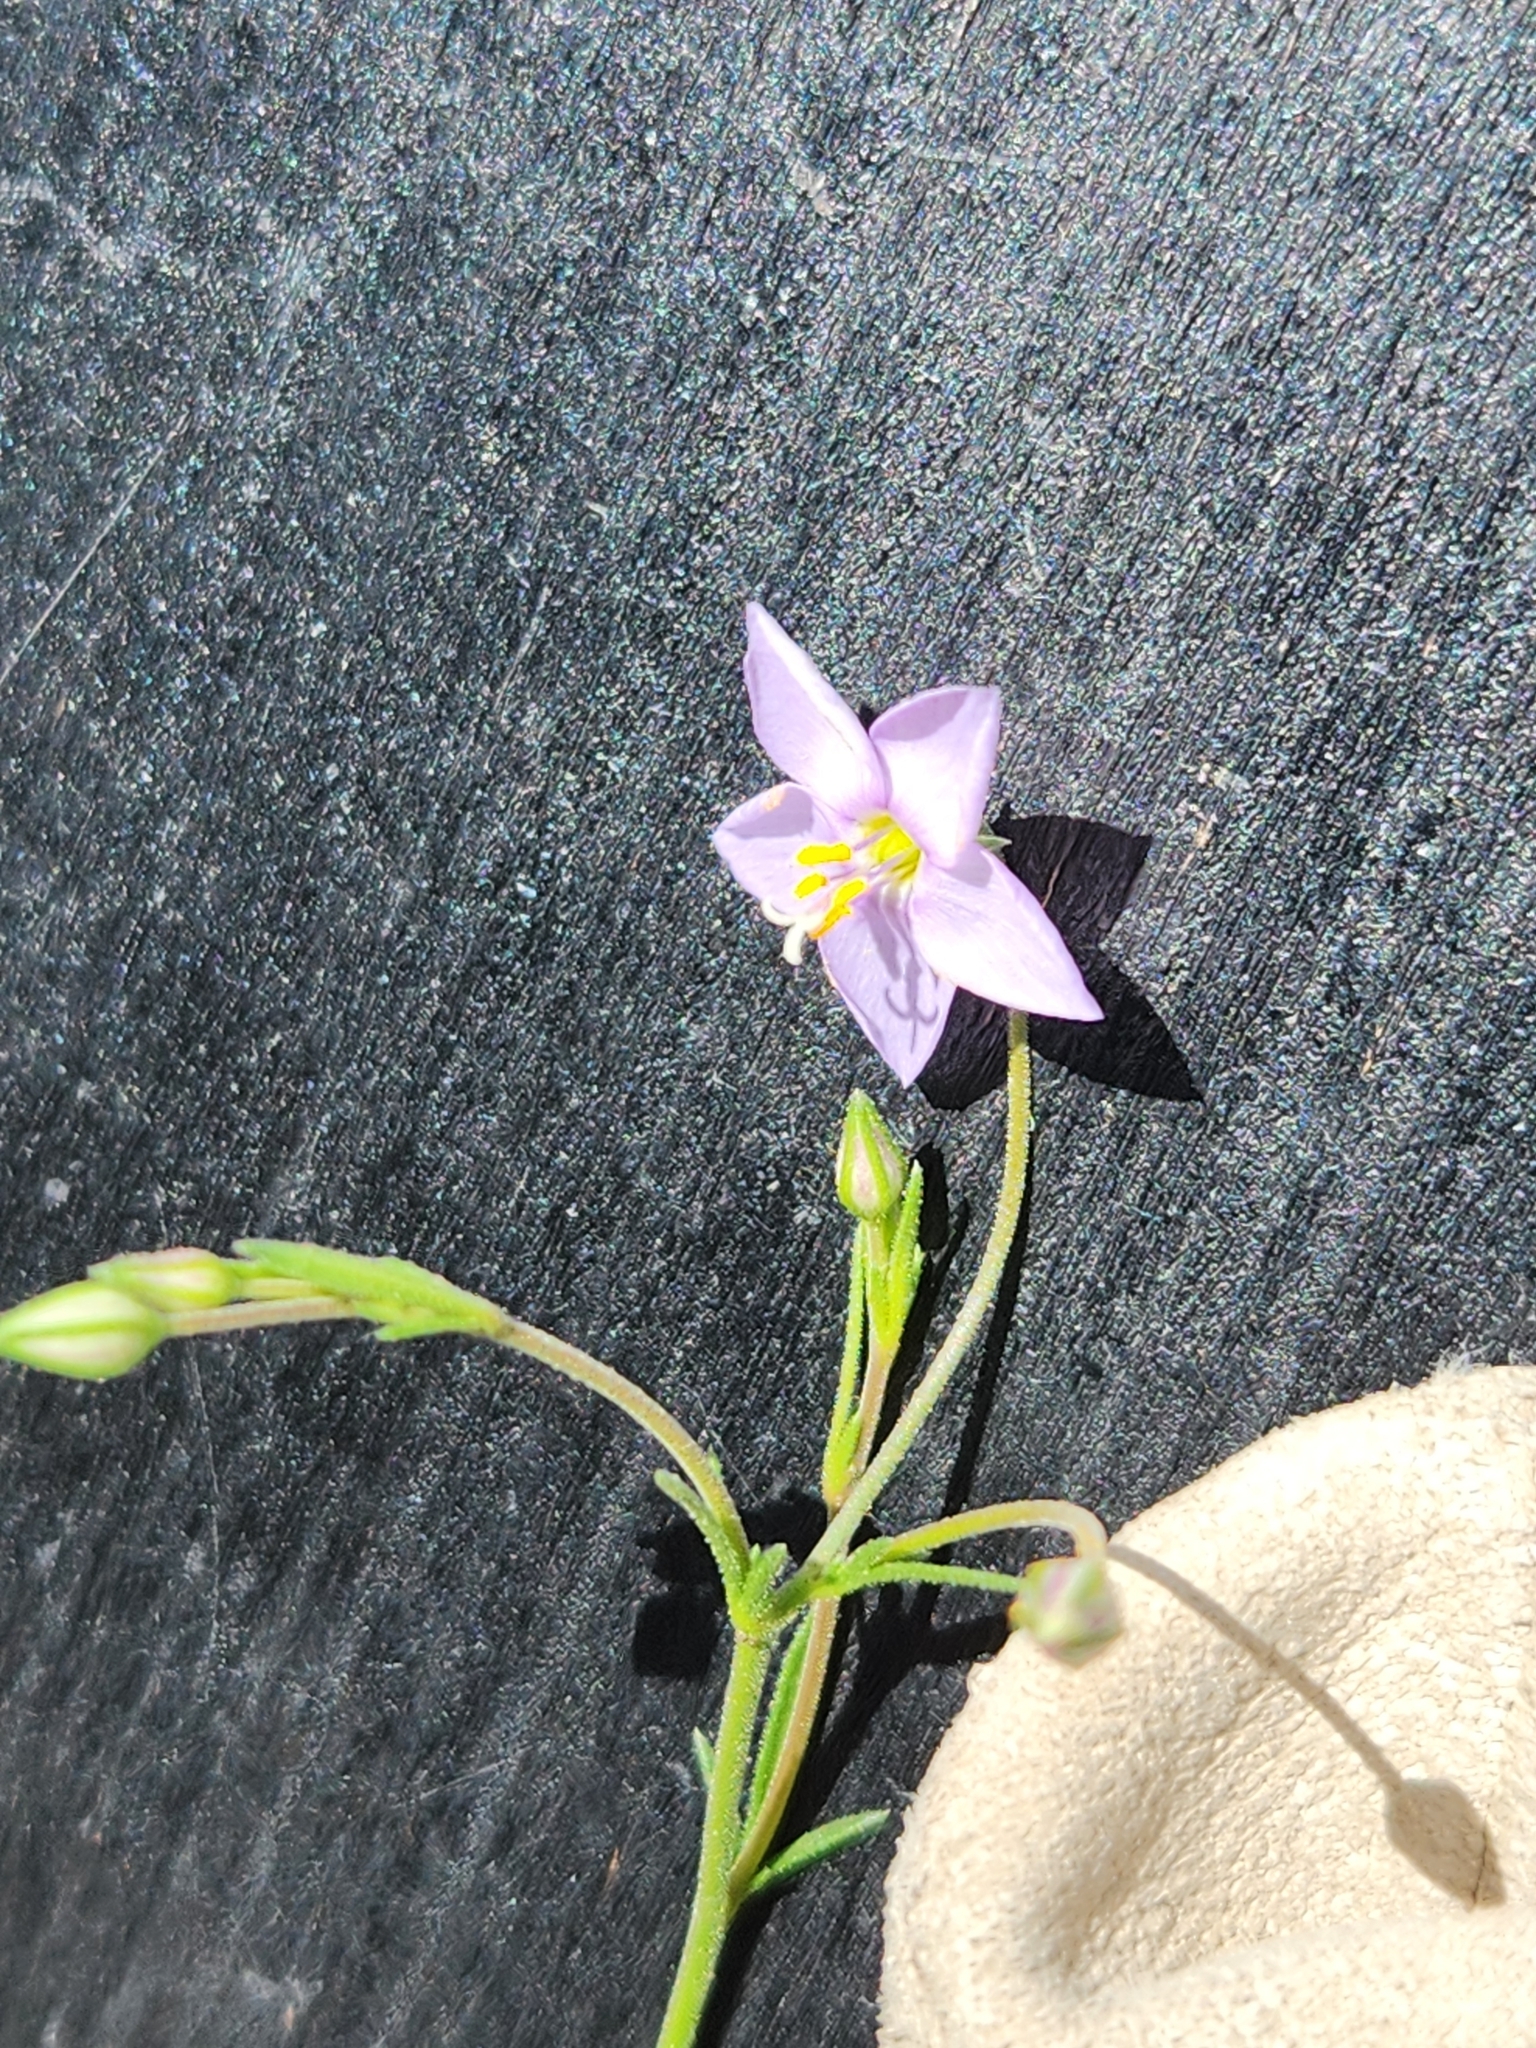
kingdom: Plantae
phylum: Tracheophyta
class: Magnoliopsida
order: Ericales
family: Polemoniaceae
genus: Giliastrum
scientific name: Giliastrum incisum
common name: Splitleaf gilia
